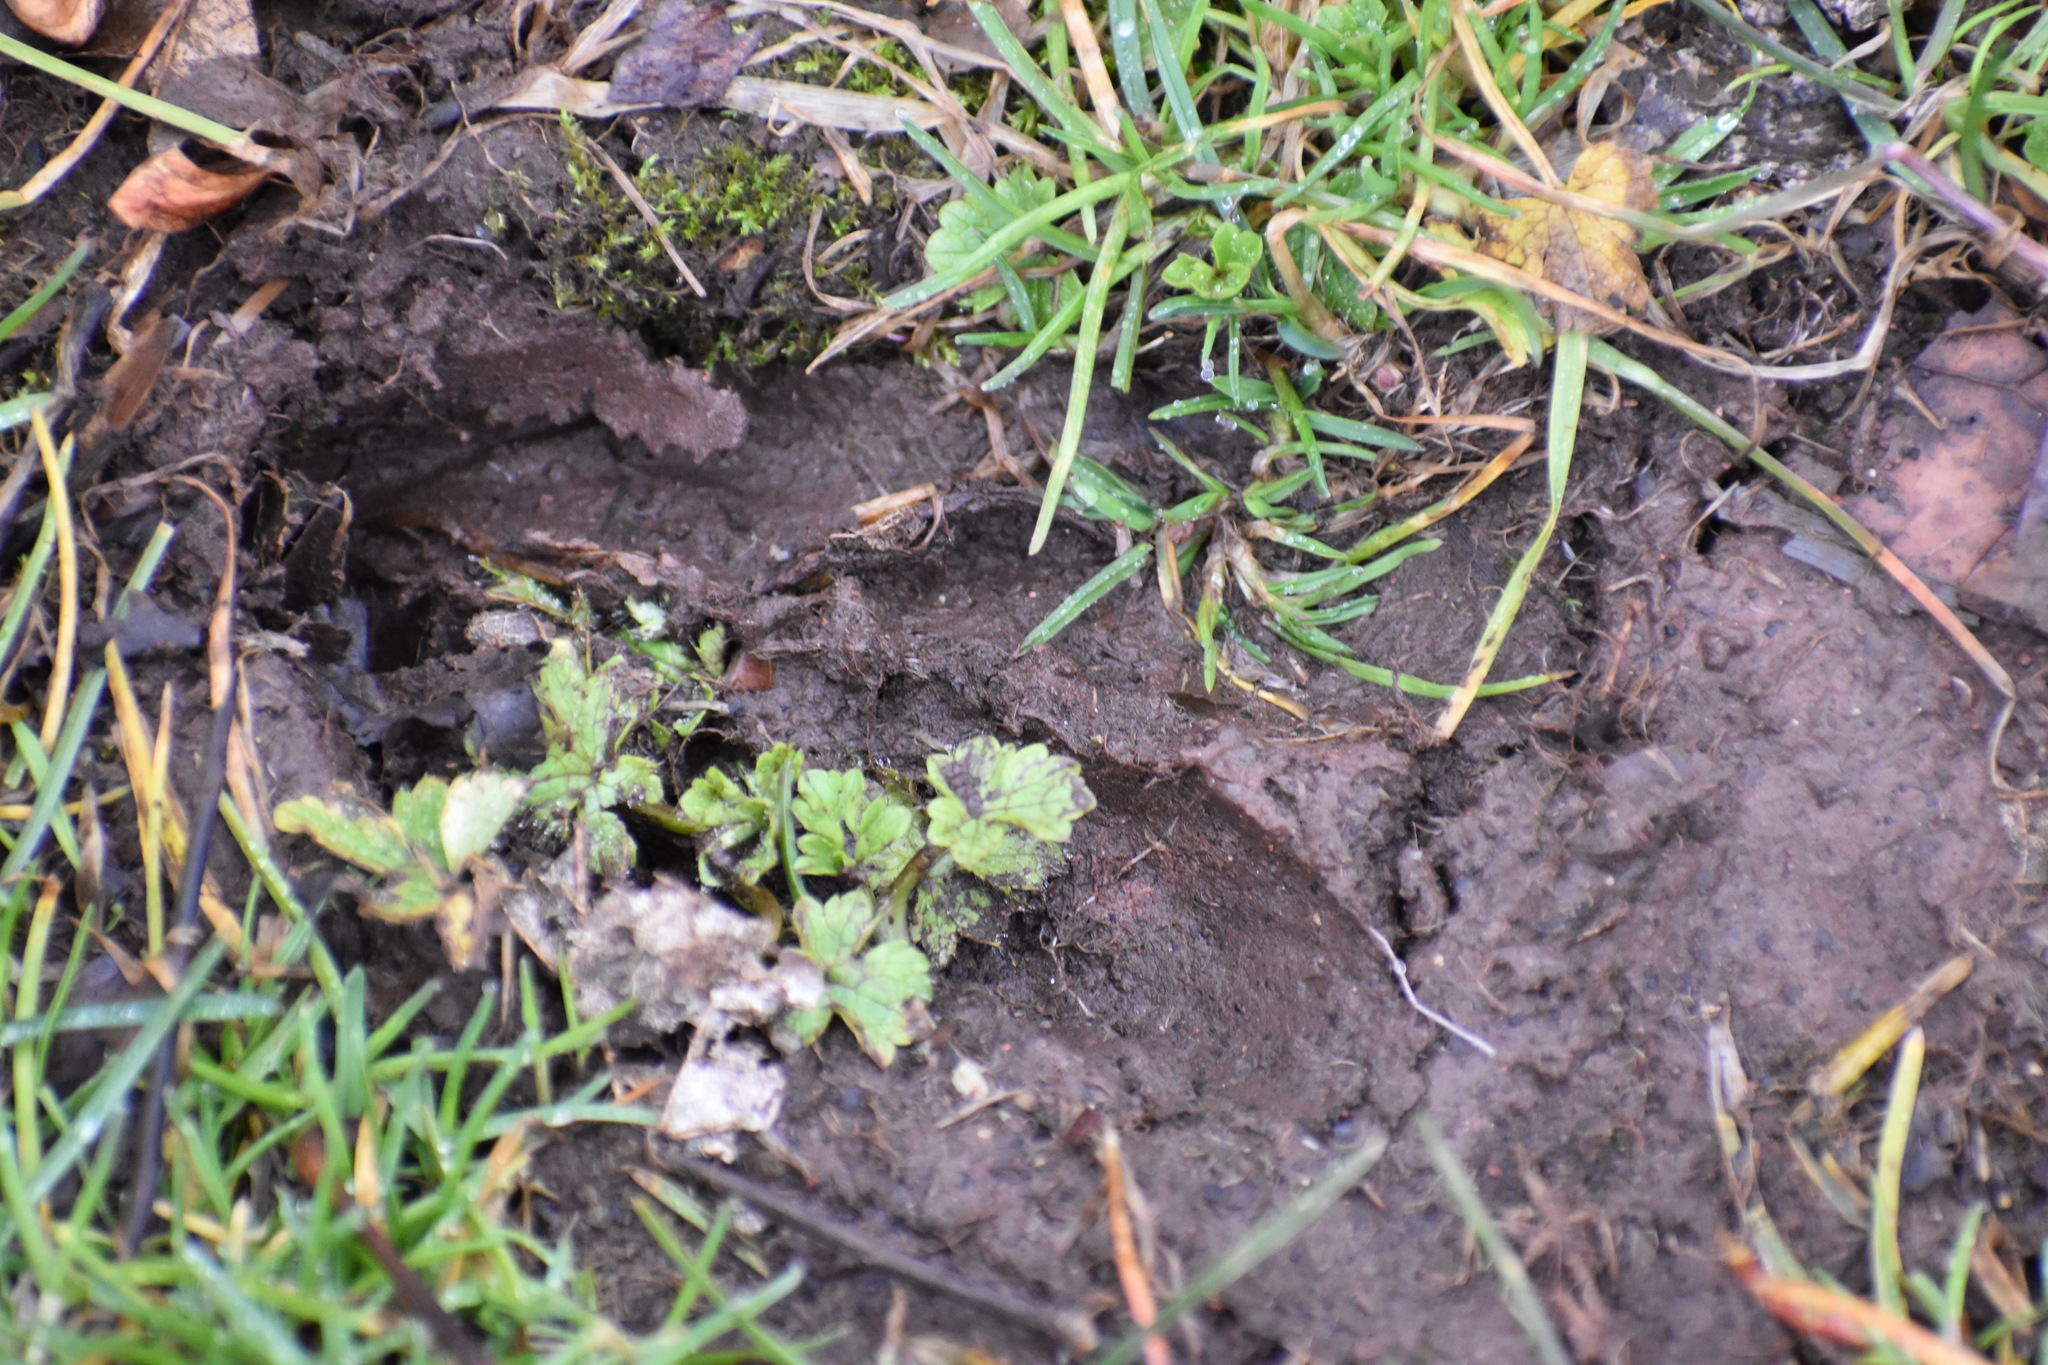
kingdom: Animalia
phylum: Chordata
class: Mammalia
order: Artiodactyla
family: Cervidae
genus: Odocoileus
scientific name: Odocoileus virginianus
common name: White-tailed deer
